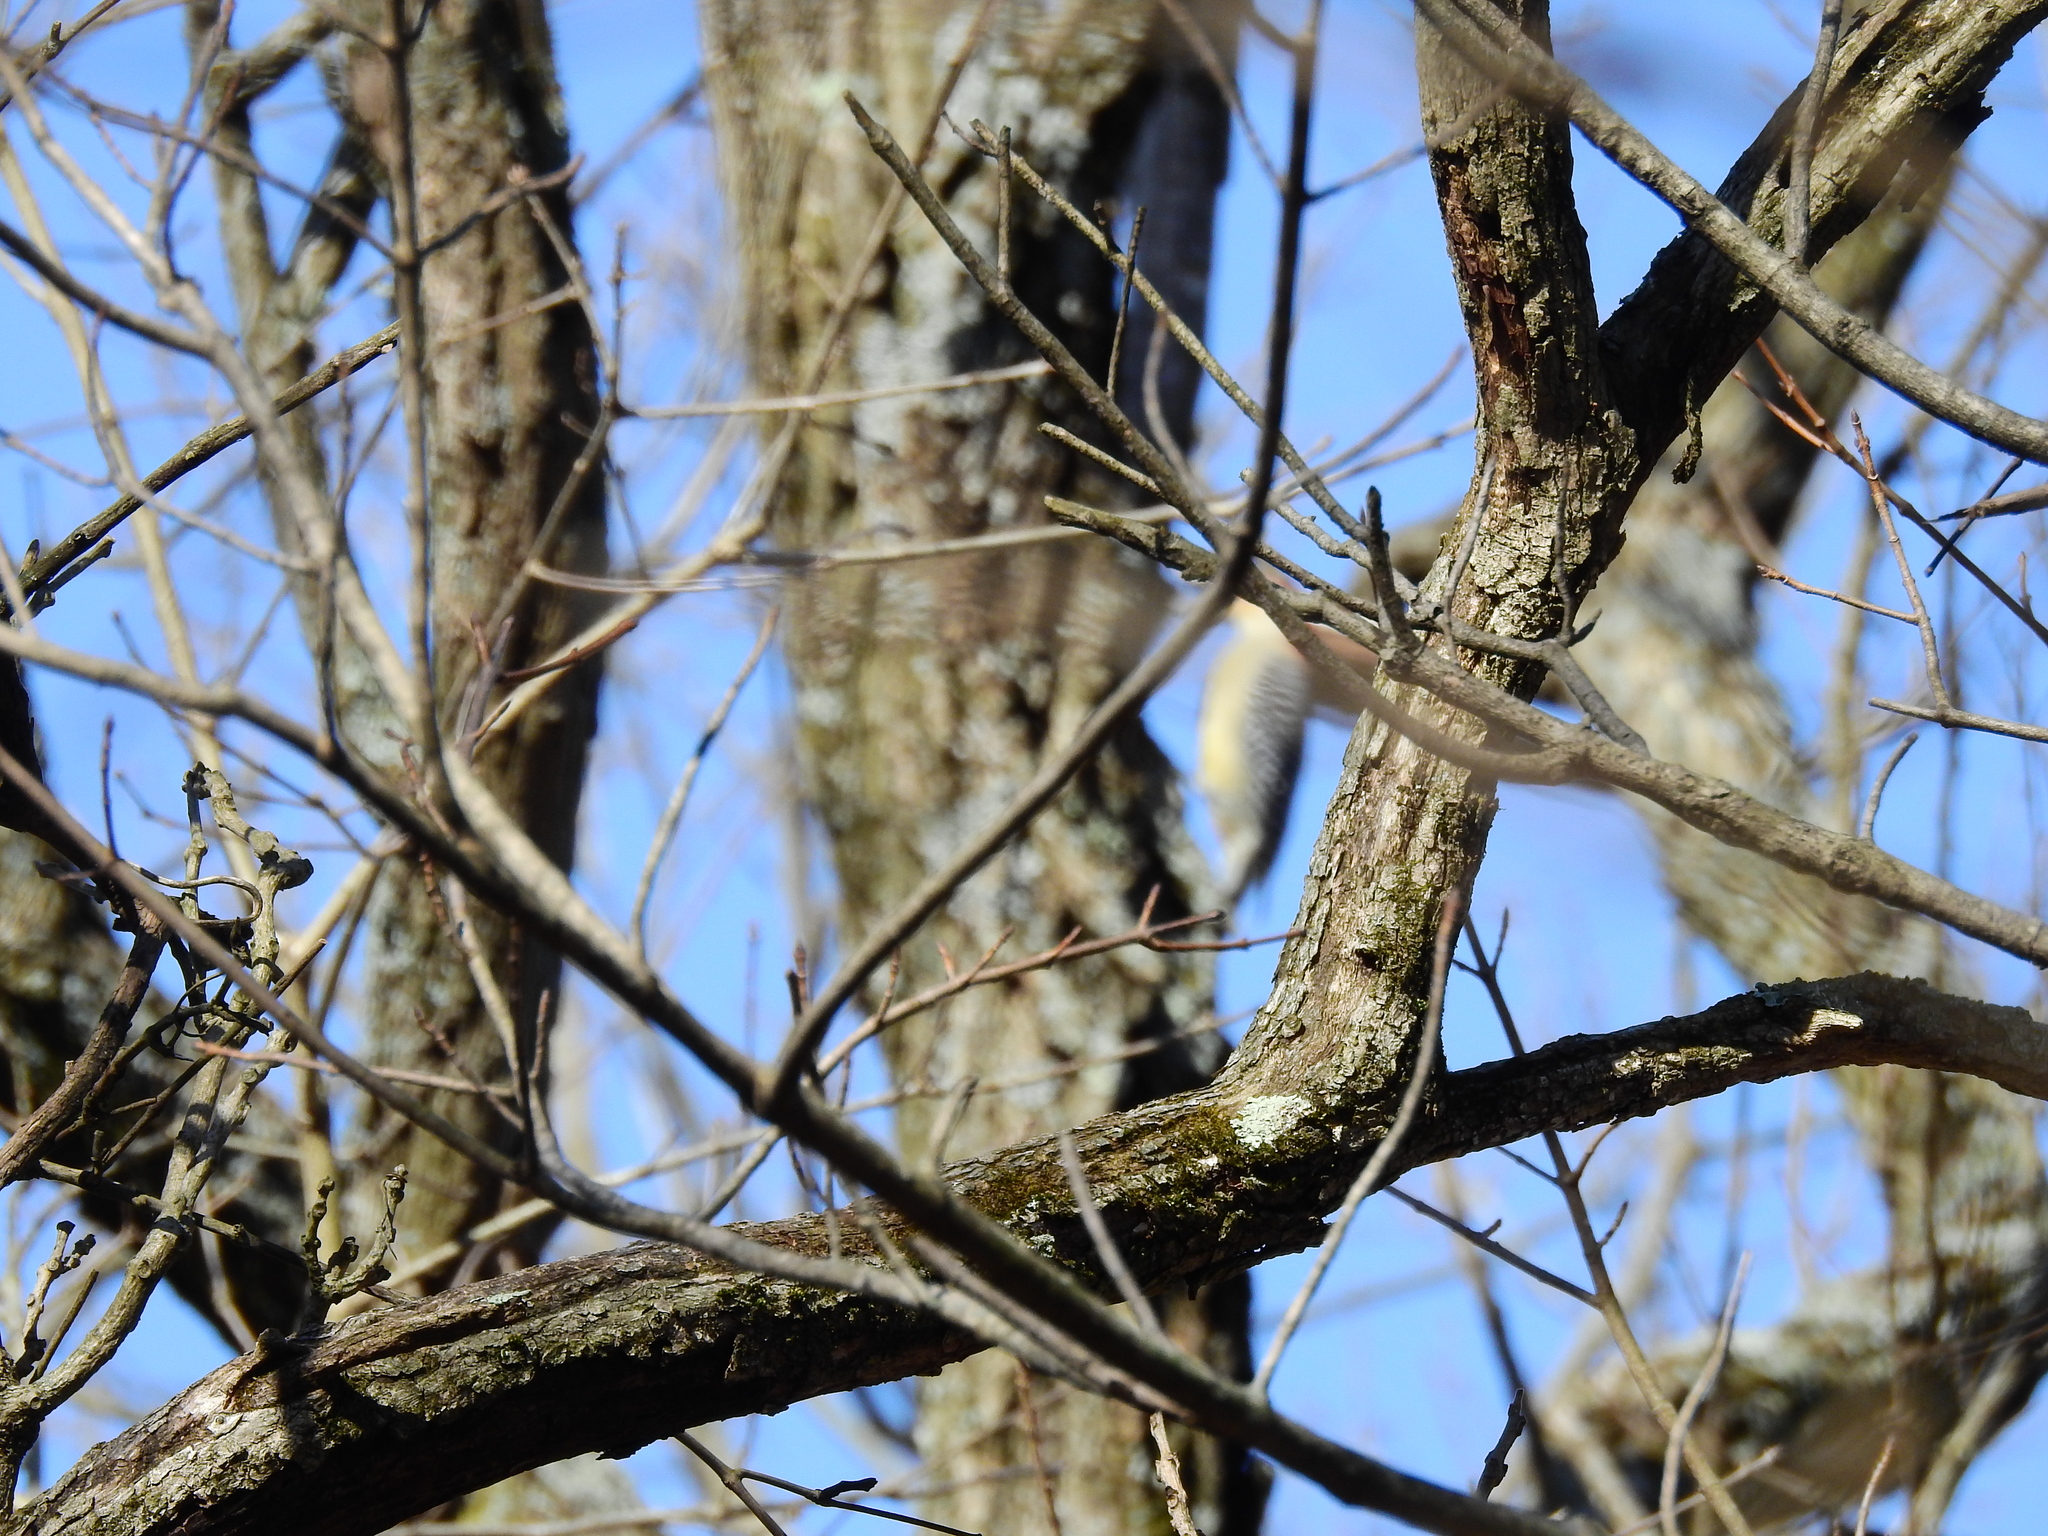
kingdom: Animalia
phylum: Chordata
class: Aves
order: Piciformes
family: Picidae
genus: Melanerpes
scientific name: Melanerpes carolinus
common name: Red-bellied woodpecker
